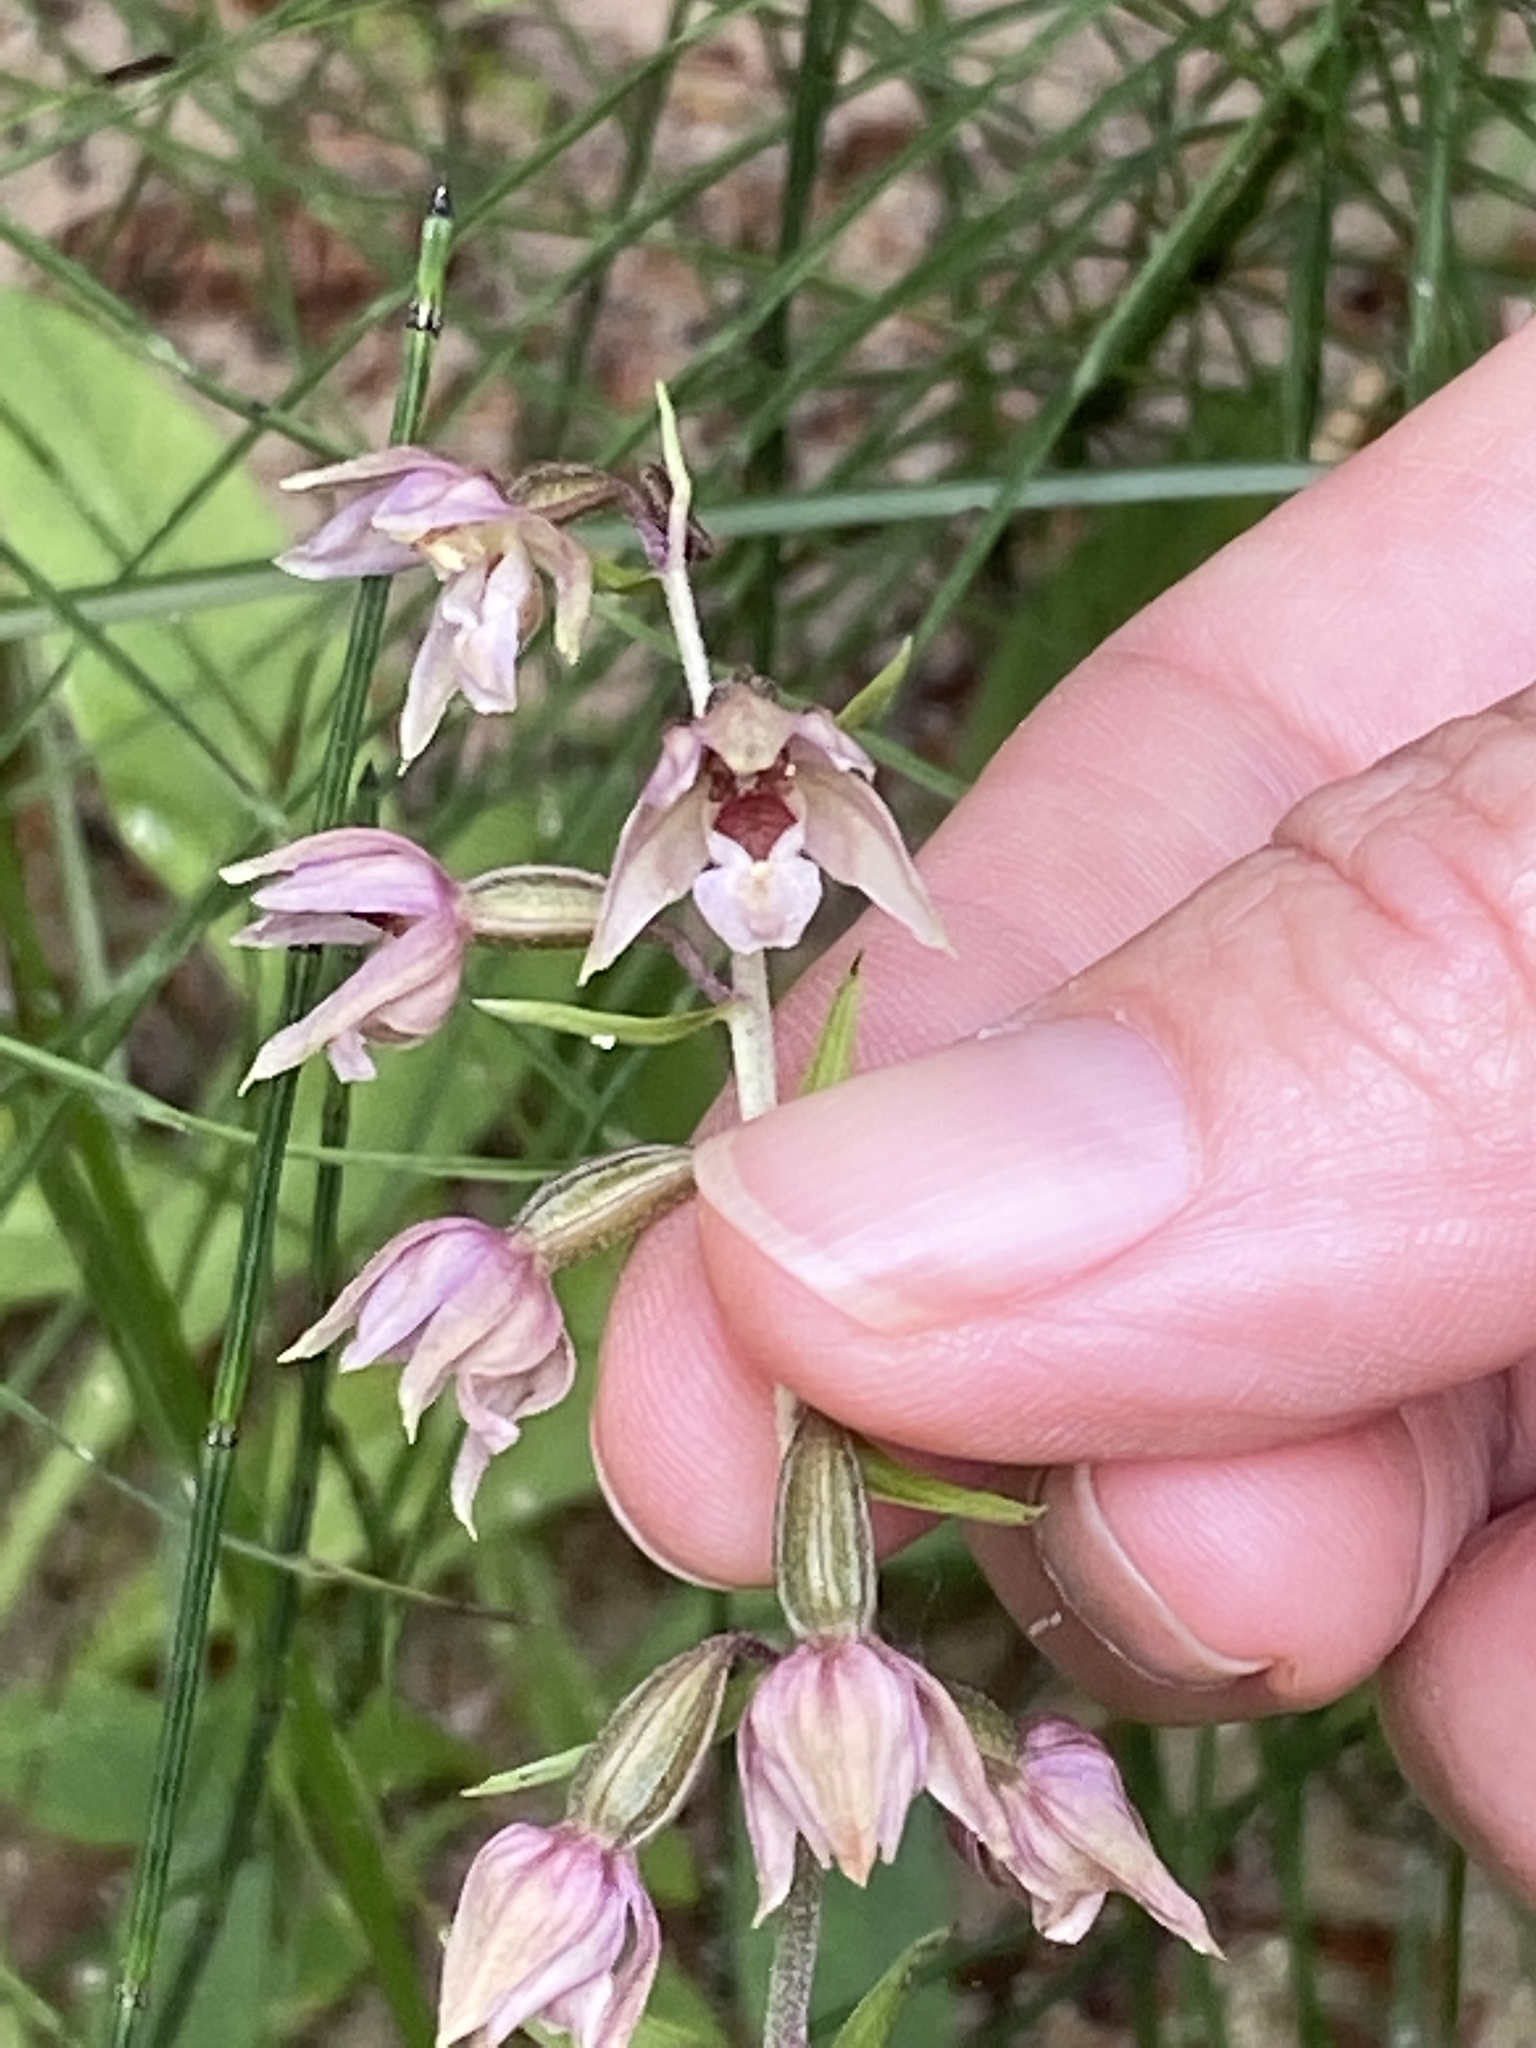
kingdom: Plantae
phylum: Tracheophyta
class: Liliopsida
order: Asparagales
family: Orchidaceae
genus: Epipactis
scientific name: Epipactis helleborine
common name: Broad-leaved helleborine
